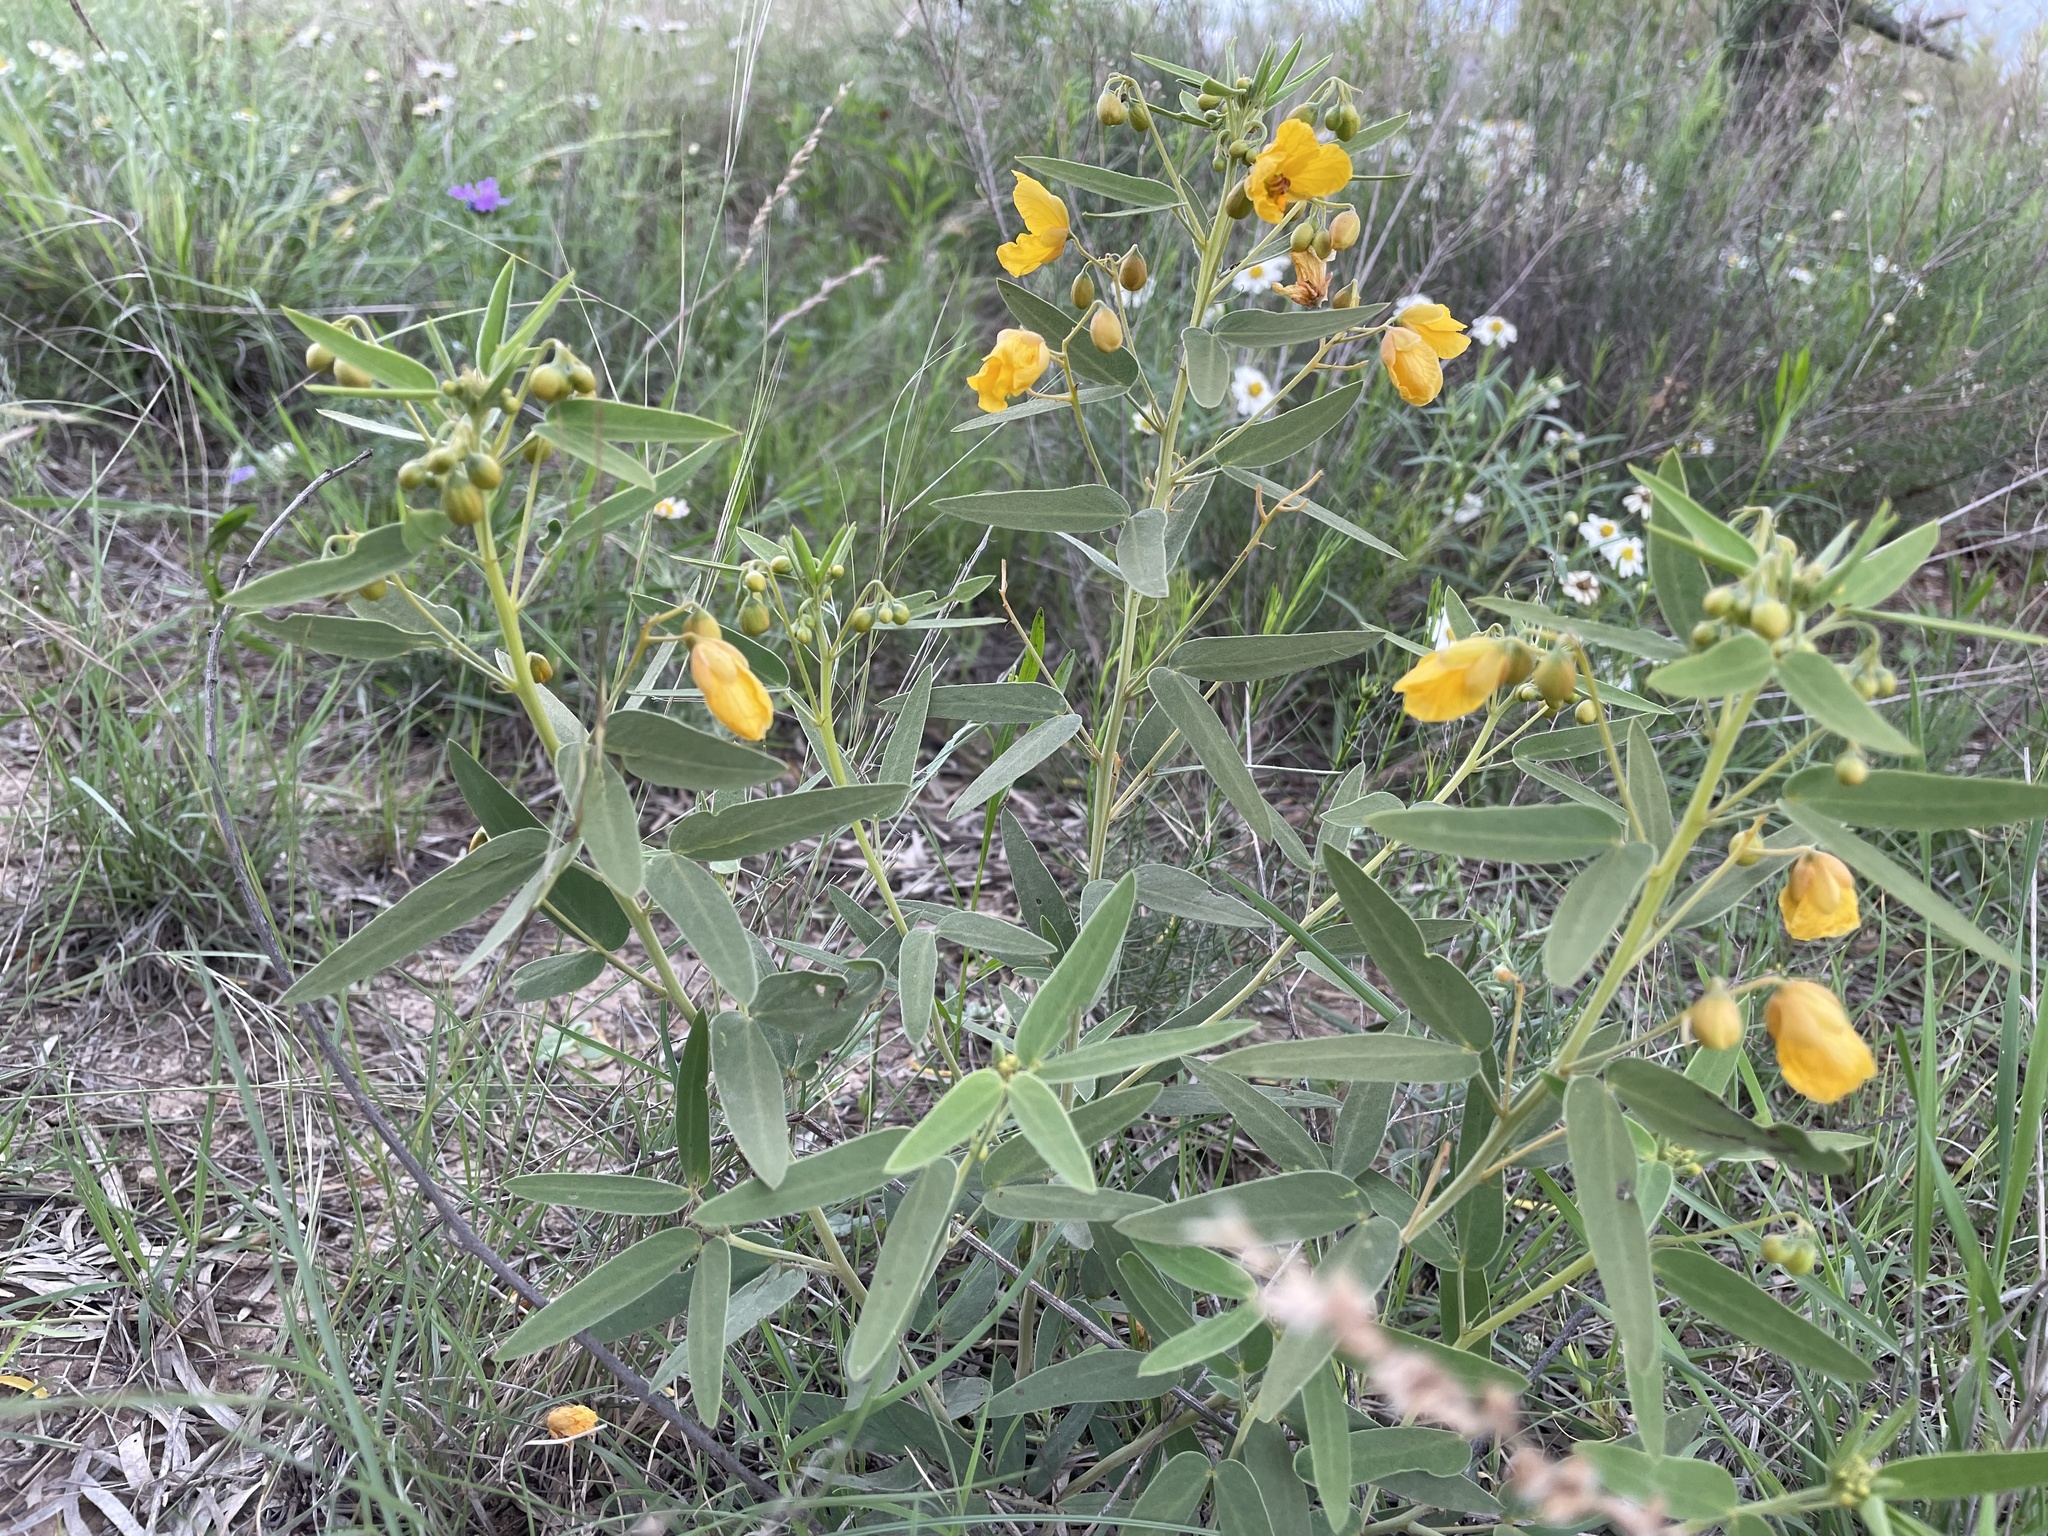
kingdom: Plantae
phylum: Tracheophyta
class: Magnoliopsida
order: Fabales
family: Fabaceae
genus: Senna
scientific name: Senna roemeriana
